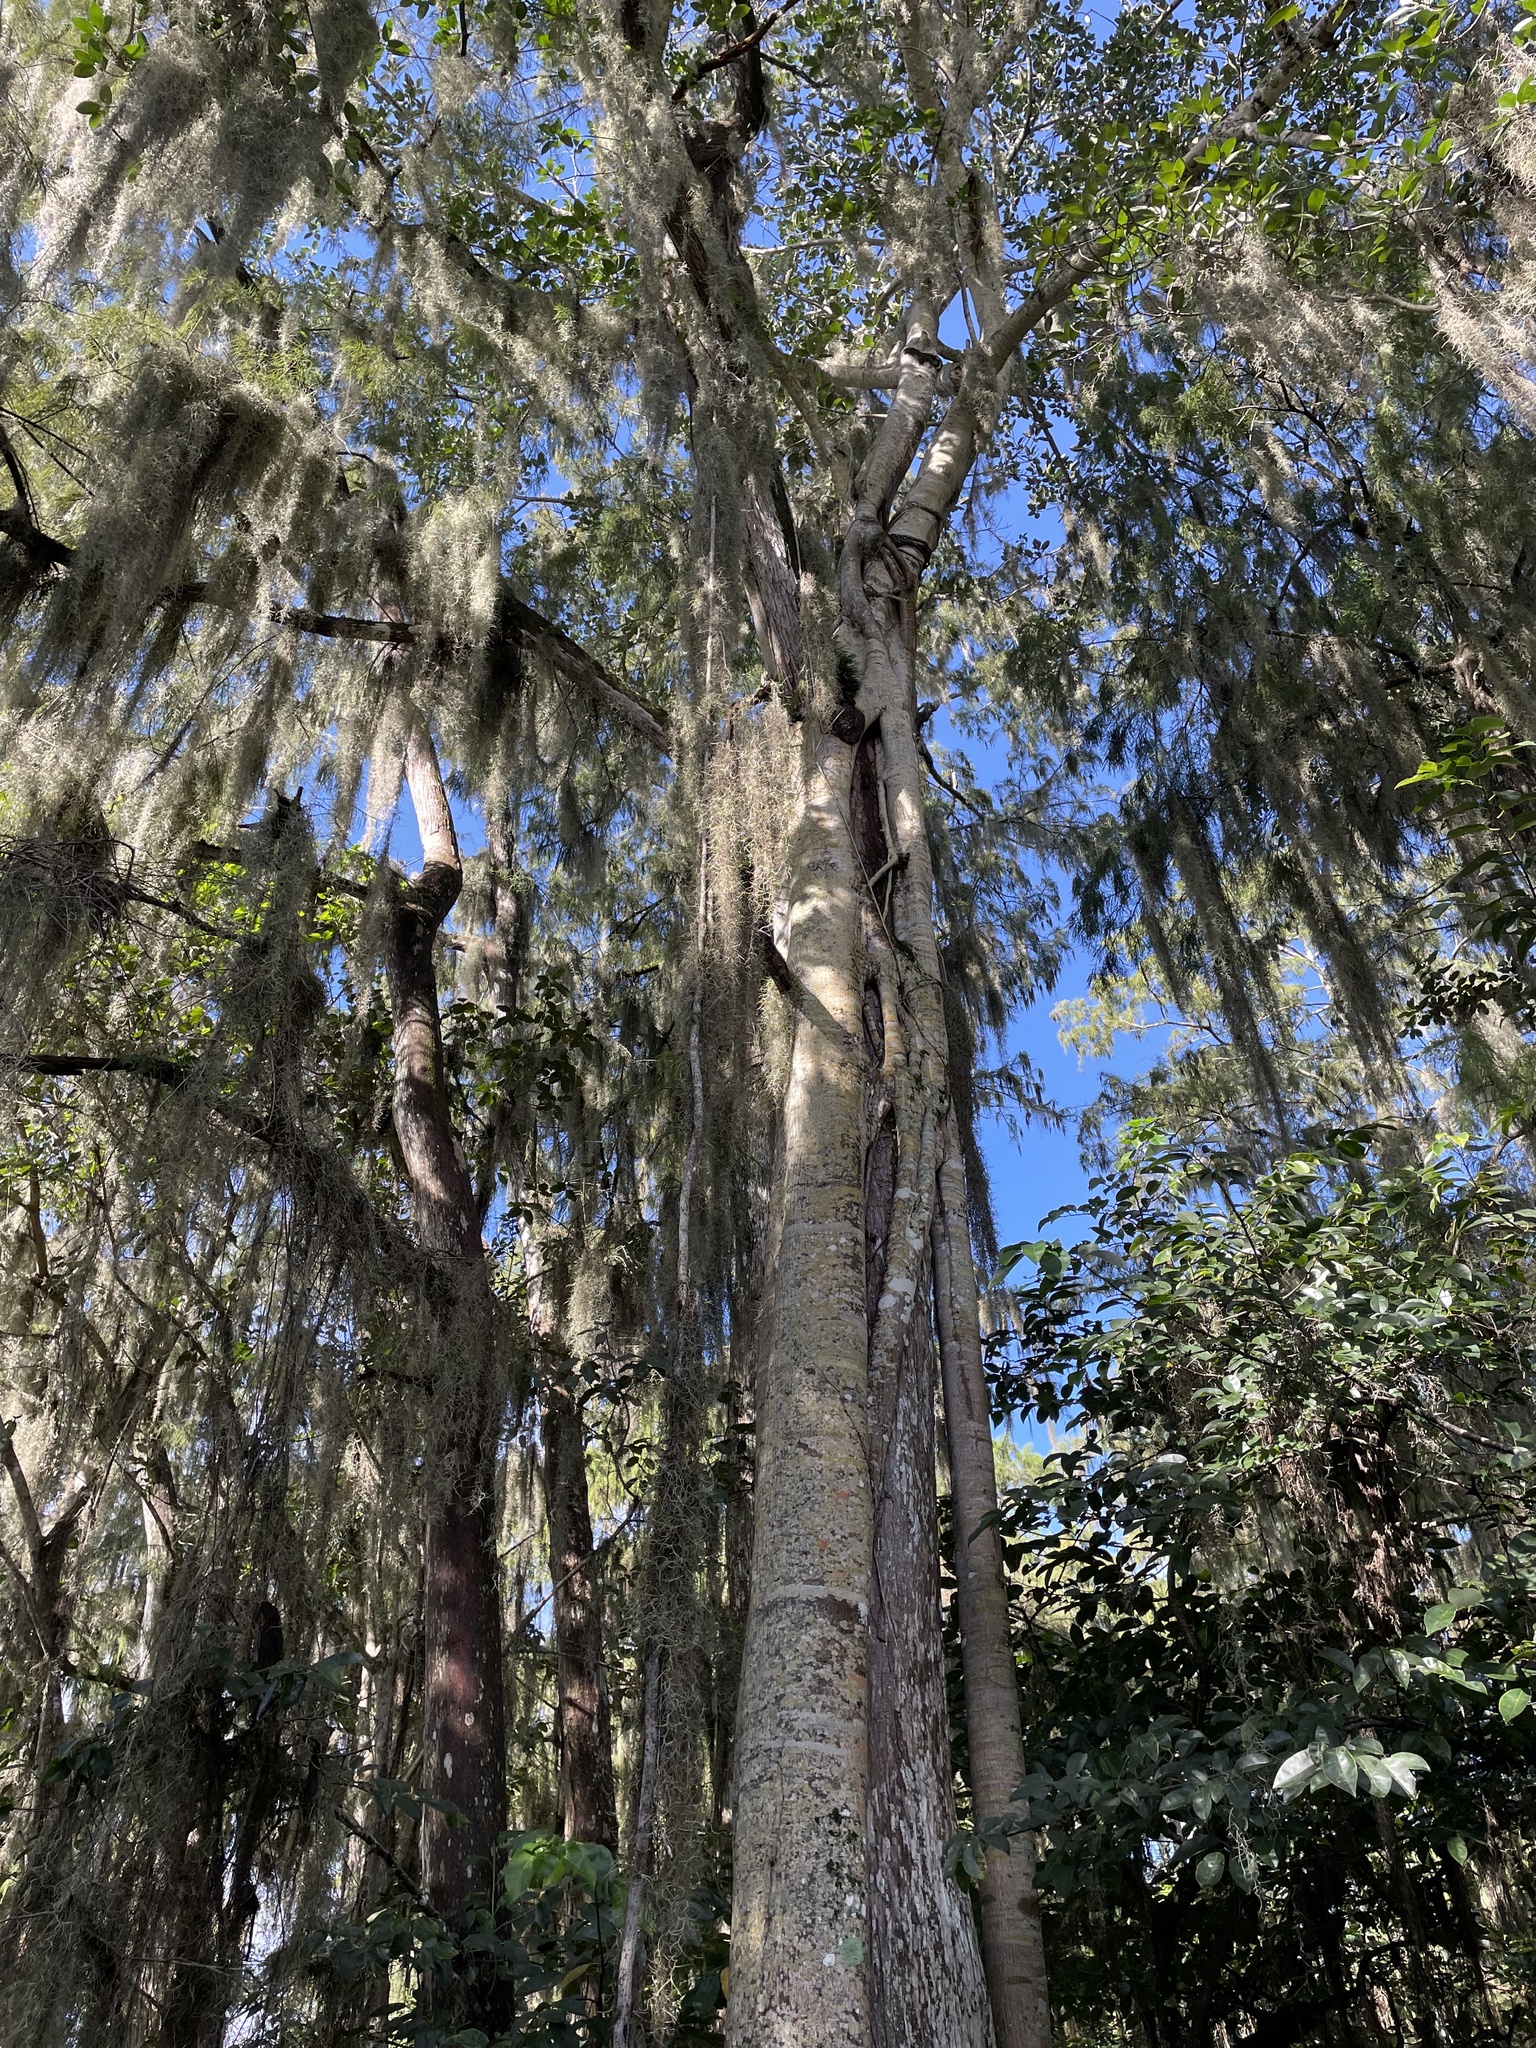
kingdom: Plantae
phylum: Tracheophyta
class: Magnoliopsida
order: Rosales
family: Moraceae
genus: Ficus
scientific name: Ficus aurea
